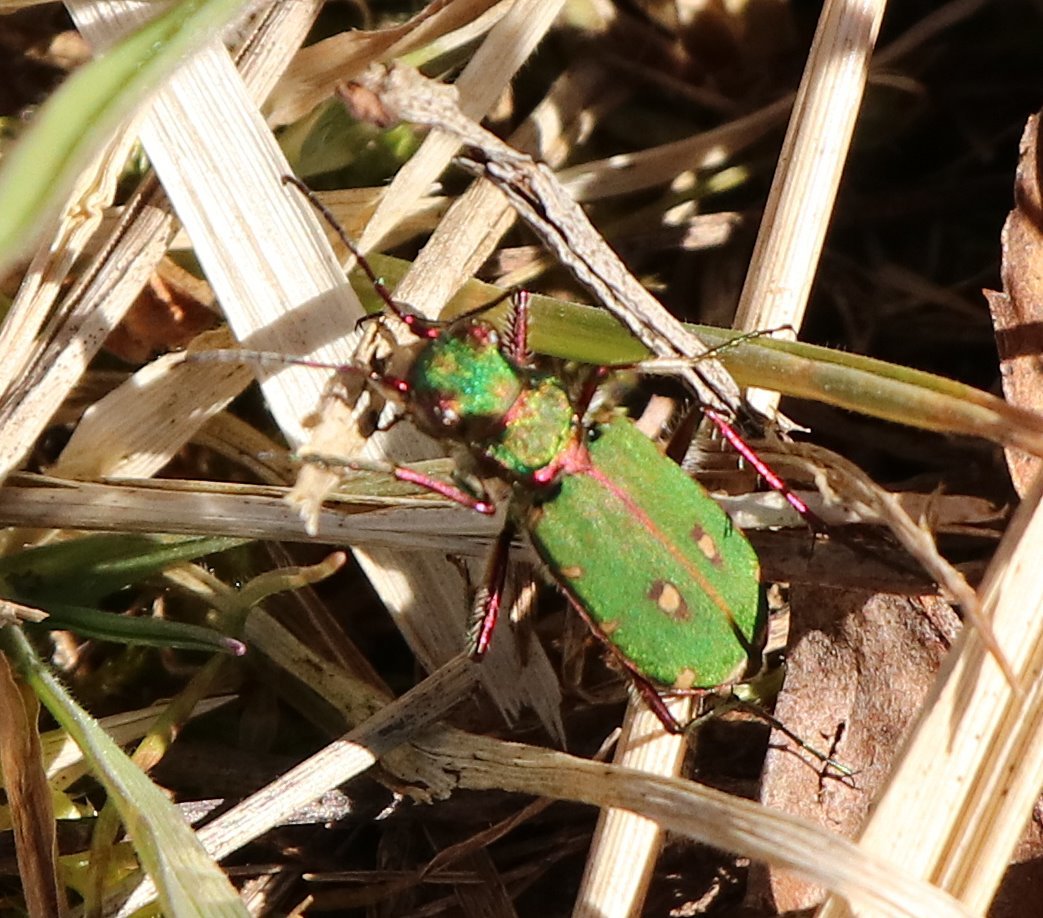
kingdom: Animalia
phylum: Arthropoda
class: Insecta
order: Coleoptera
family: Carabidae
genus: Cicindela
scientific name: Cicindela campestris
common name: Common tiger beetle
